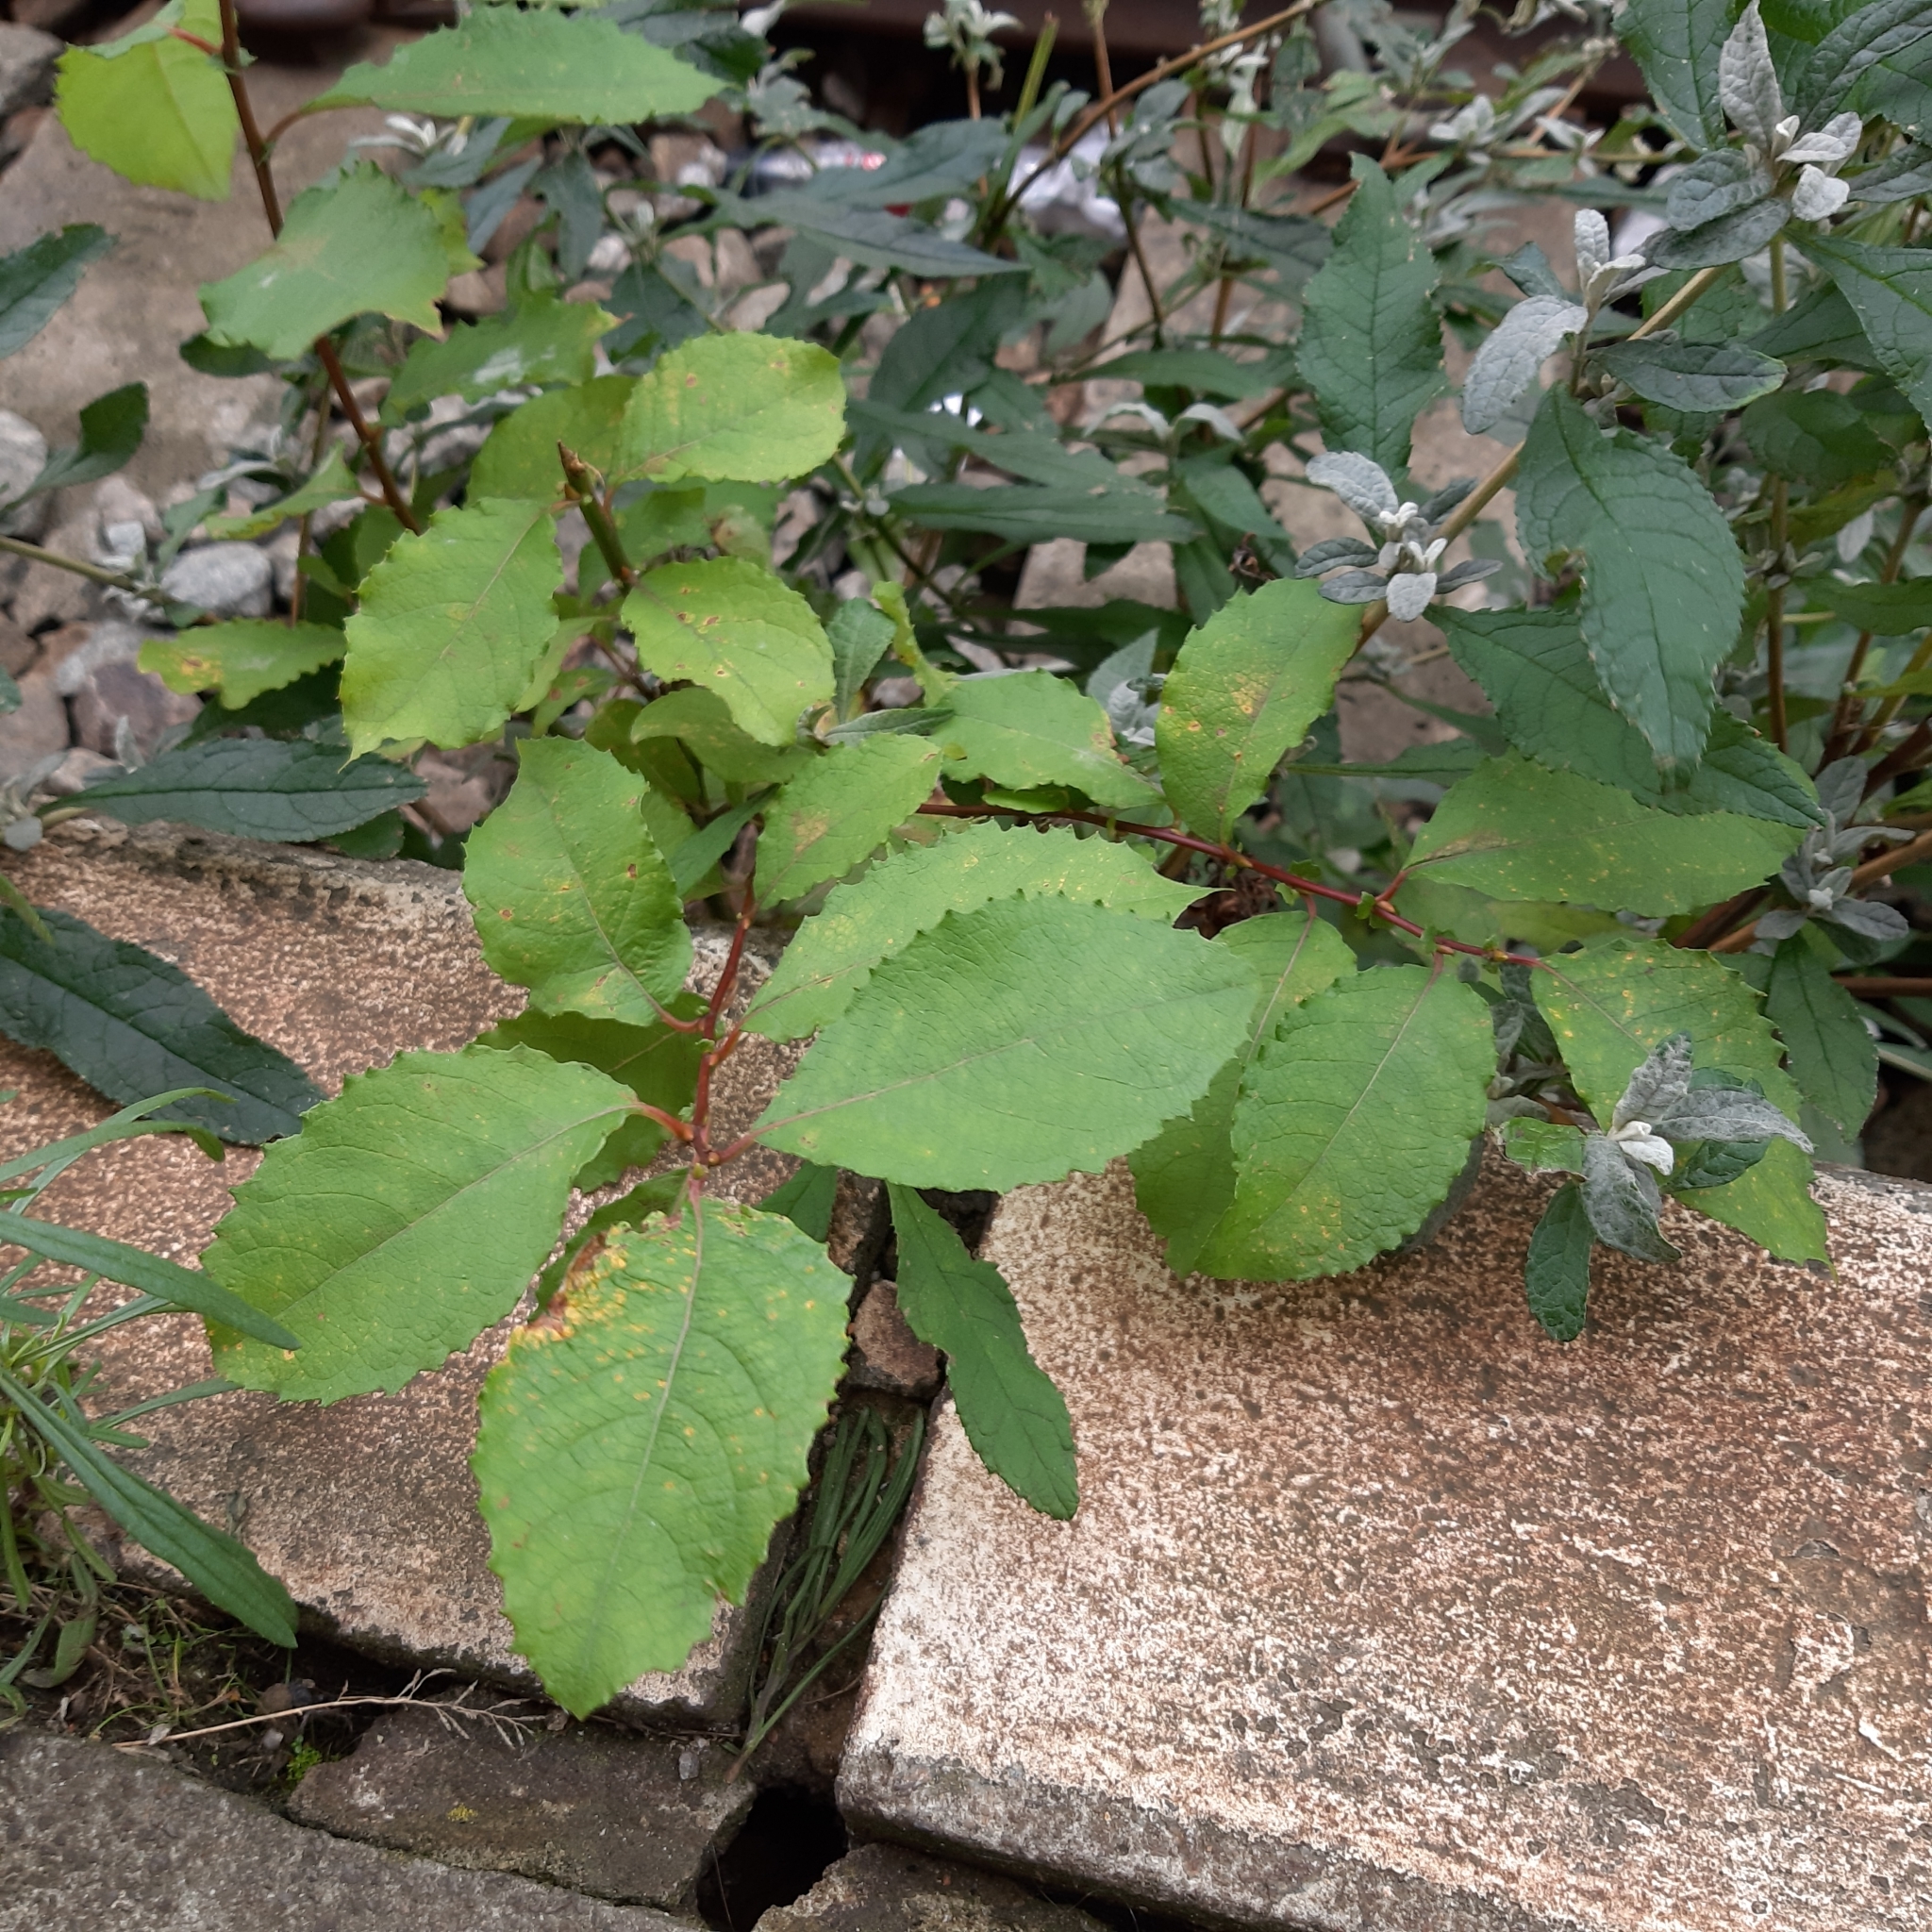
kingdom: Plantae
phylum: Tracheophyta
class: Magnoliopsida
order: Malpighiales
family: Salicaceae
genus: Salix
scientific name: Salix caprea
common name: Goat willow
